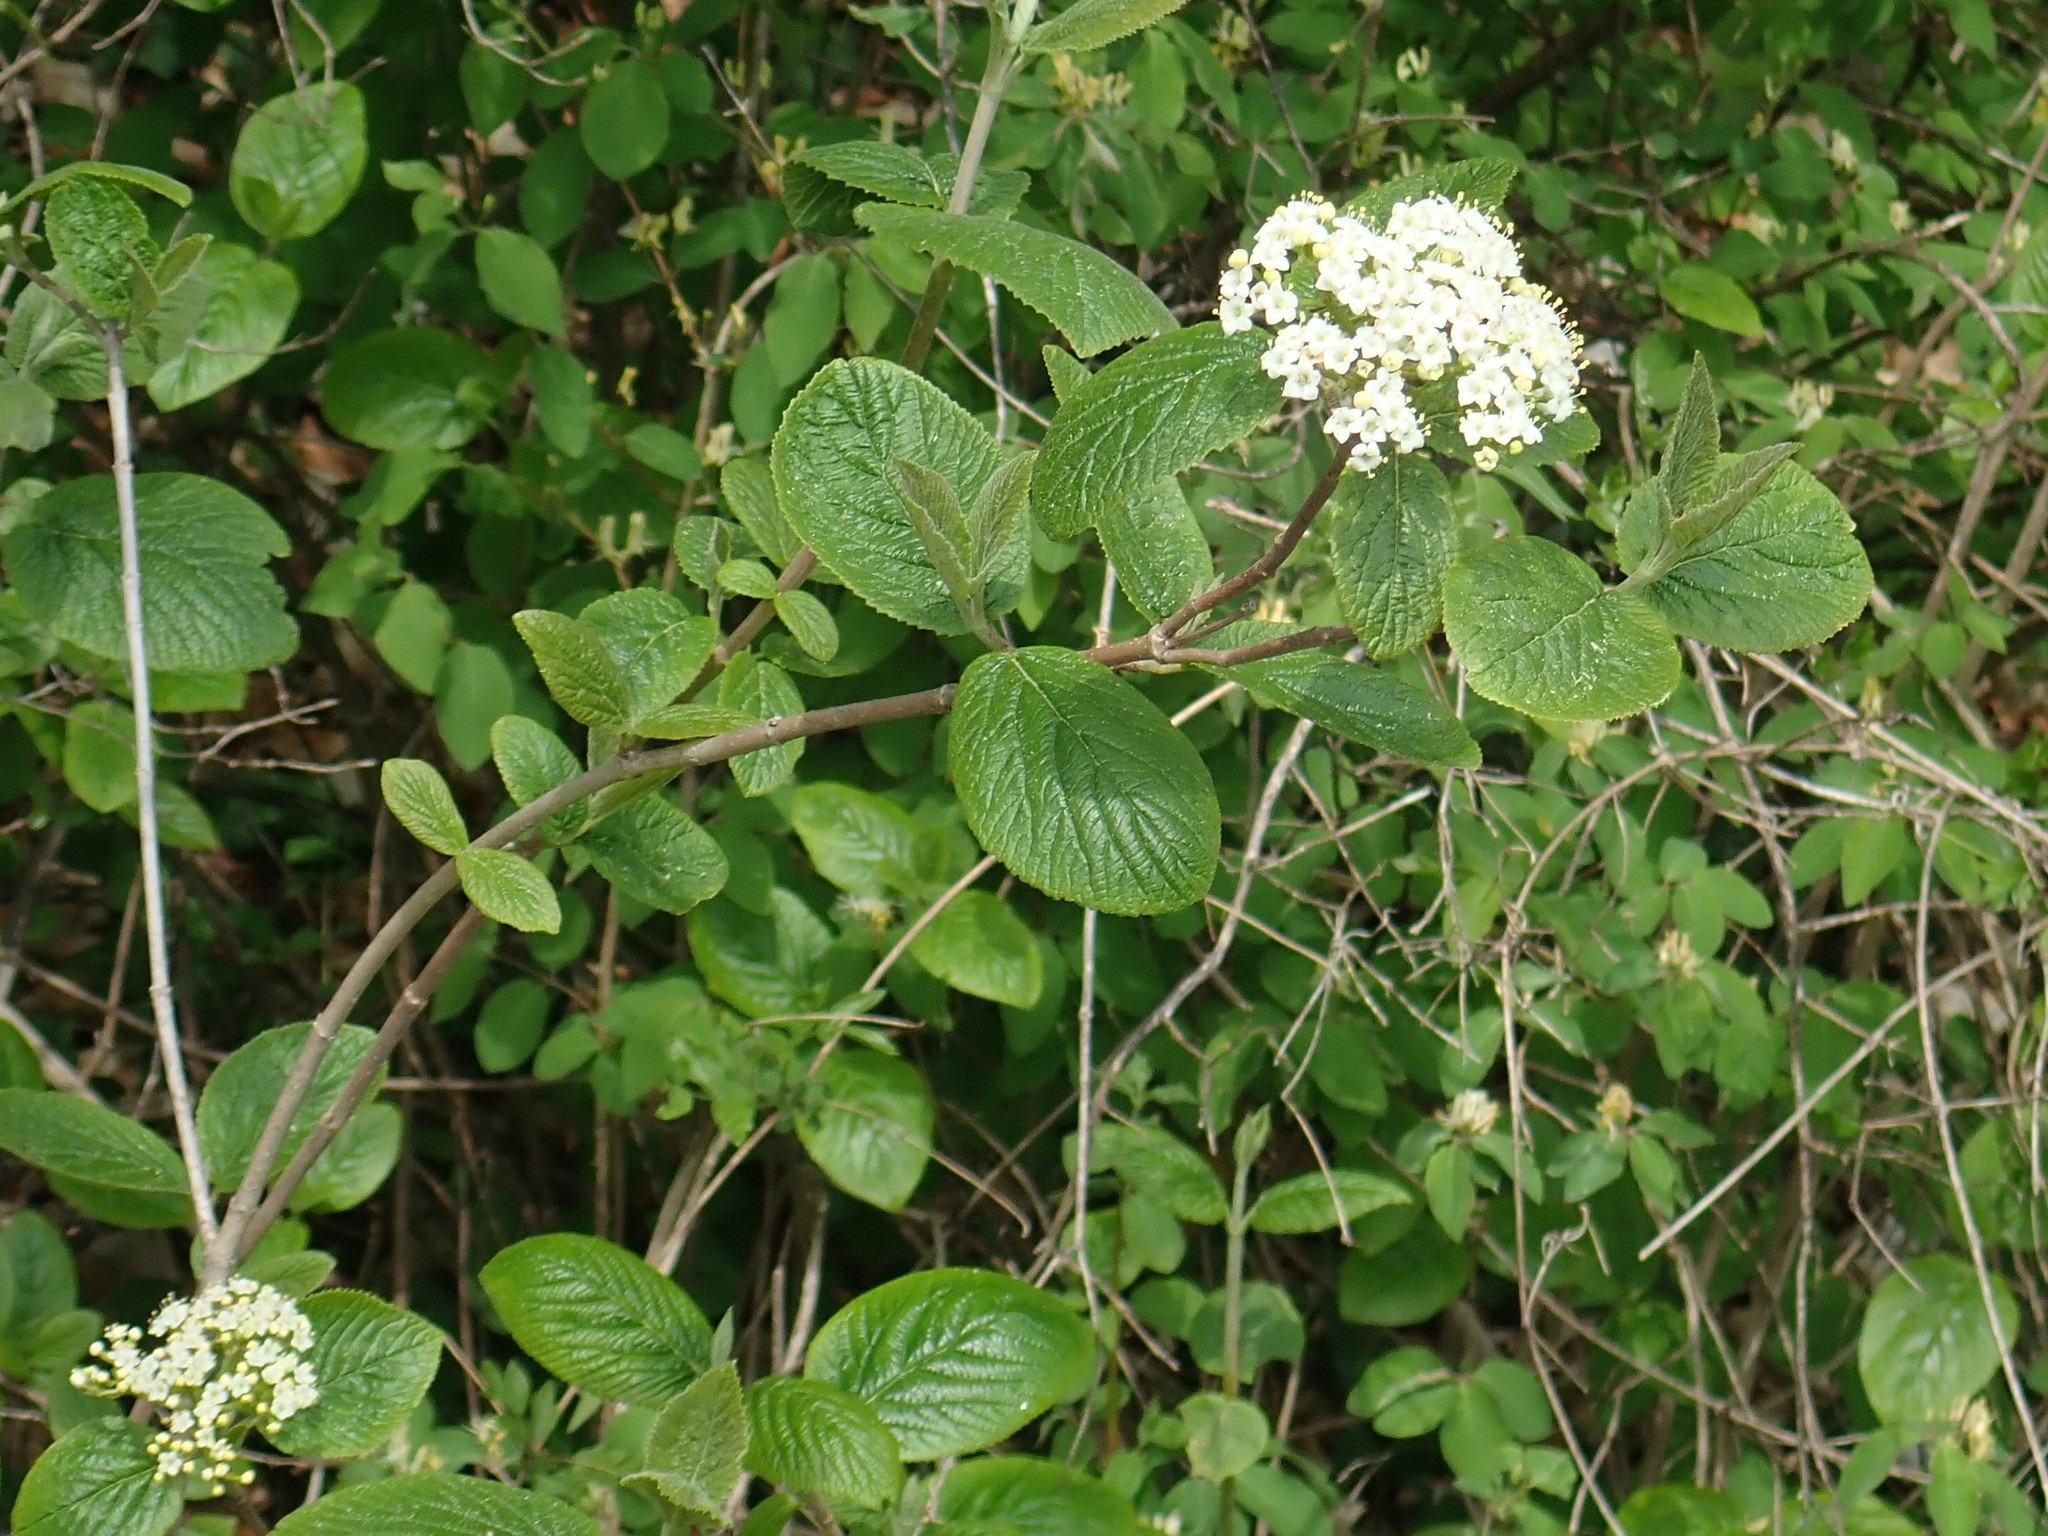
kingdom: Plantae
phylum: Tracheophyta
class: Magnoliopsida
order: Dipsacales
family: Viburnaceae
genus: Viburnum
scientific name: Viburnum lantana
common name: Wayfaring tree
